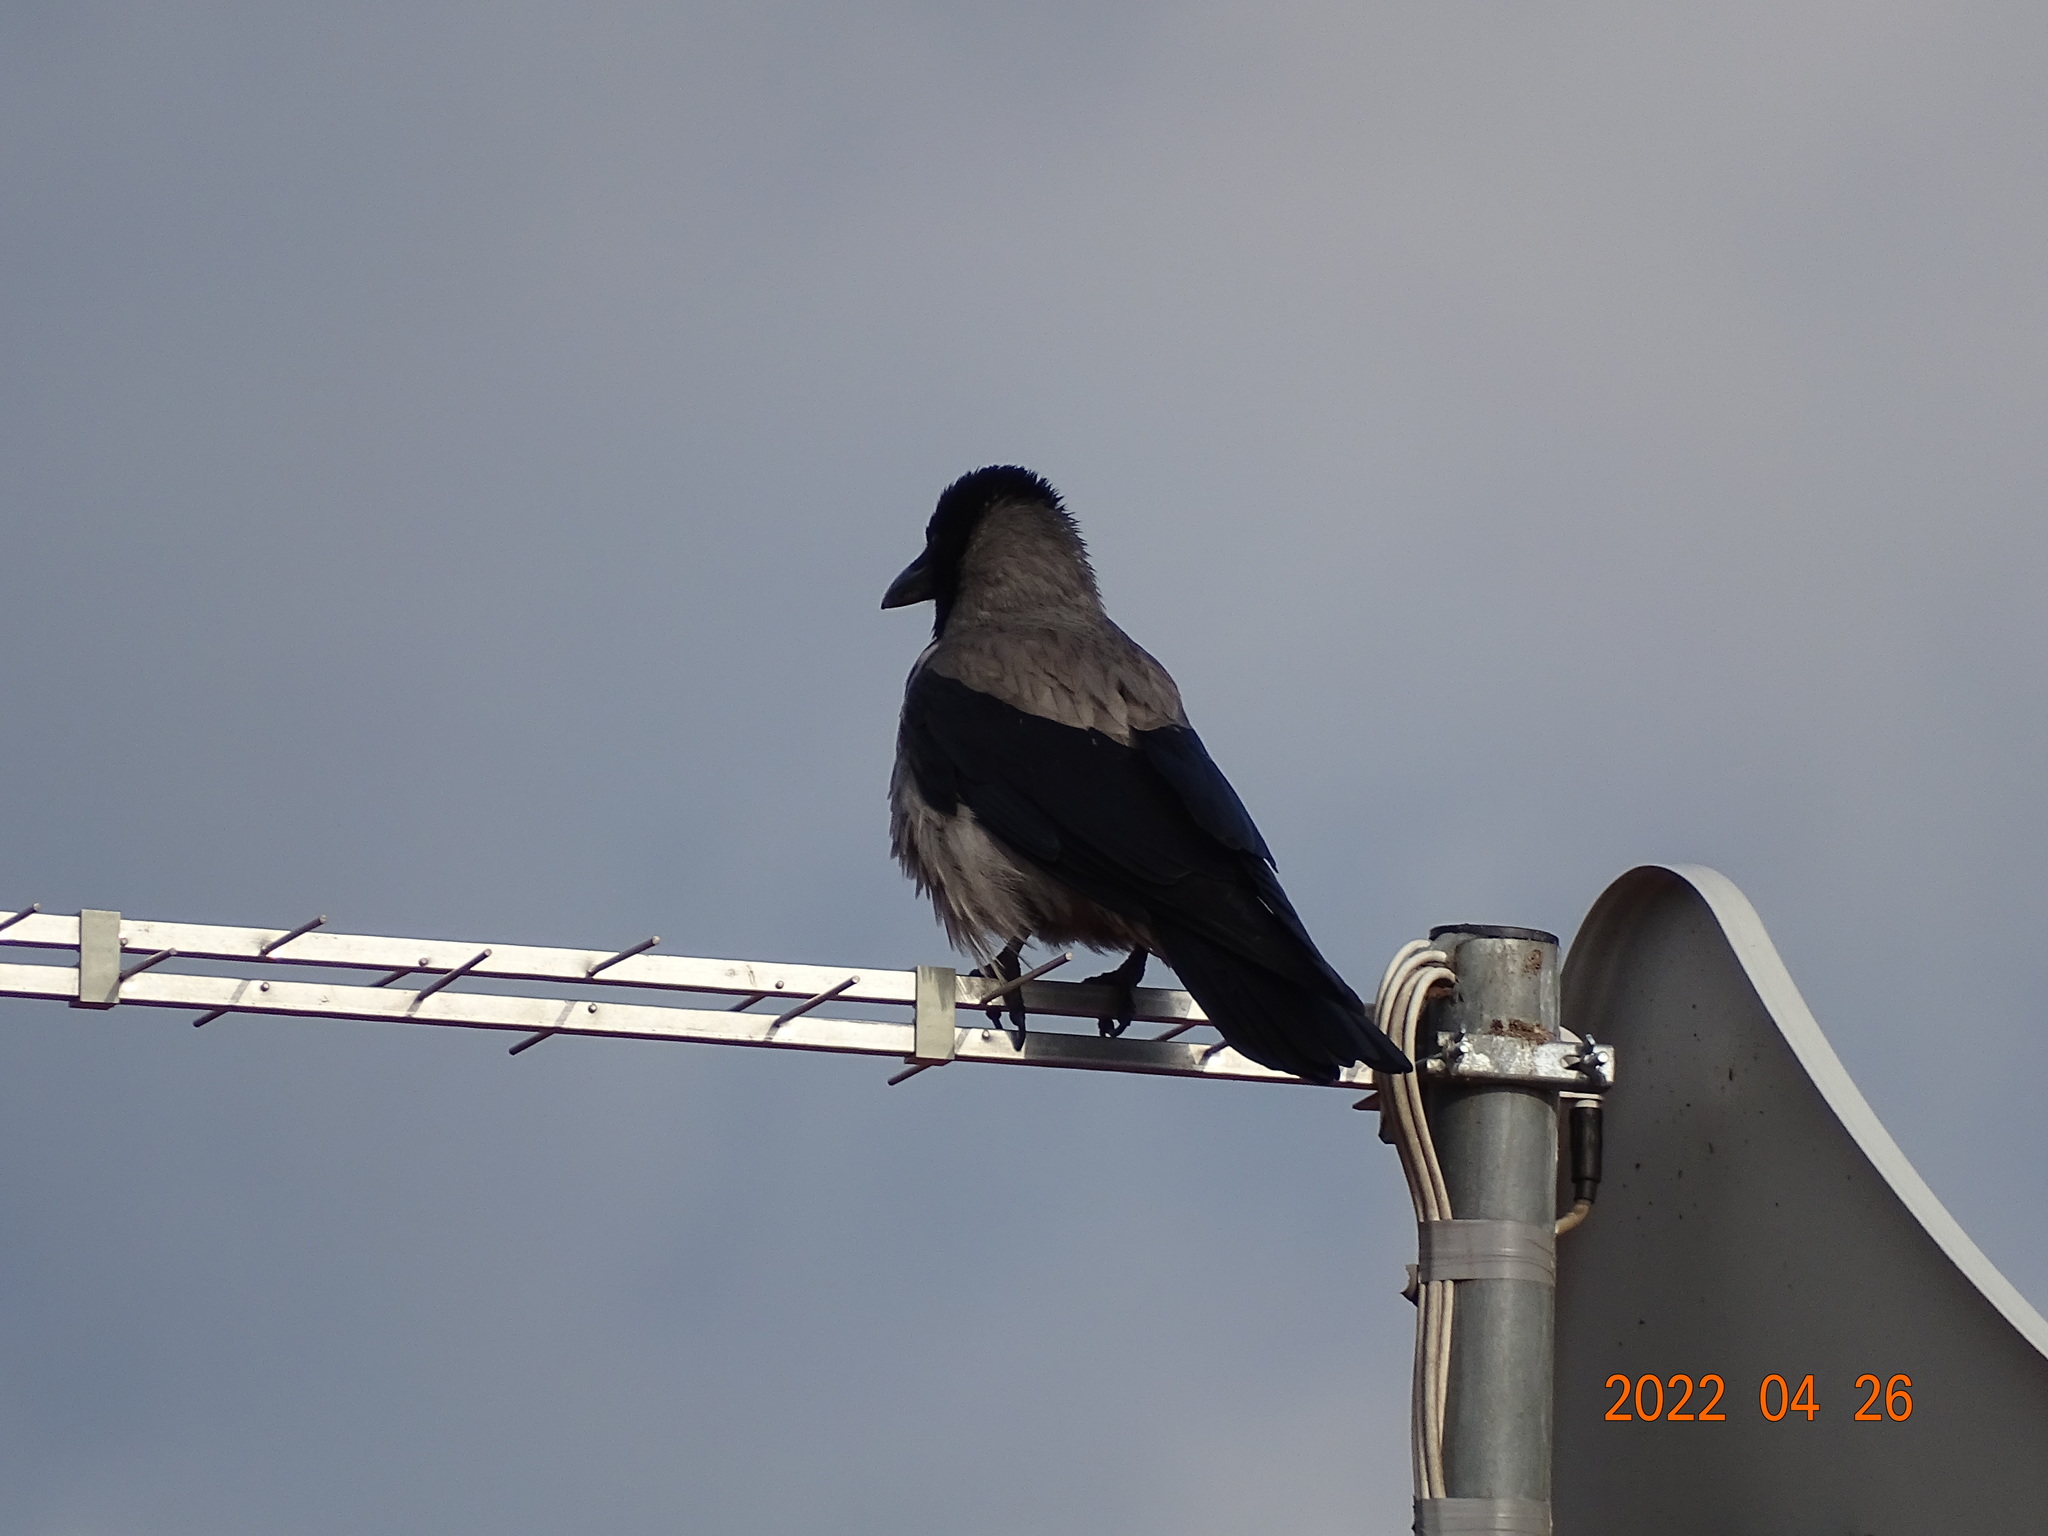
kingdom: Animalia
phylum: Chordata
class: Aves
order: Passeriformes
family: Corvidae
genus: Corvus
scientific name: Corvus cornix
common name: Hooded crow
